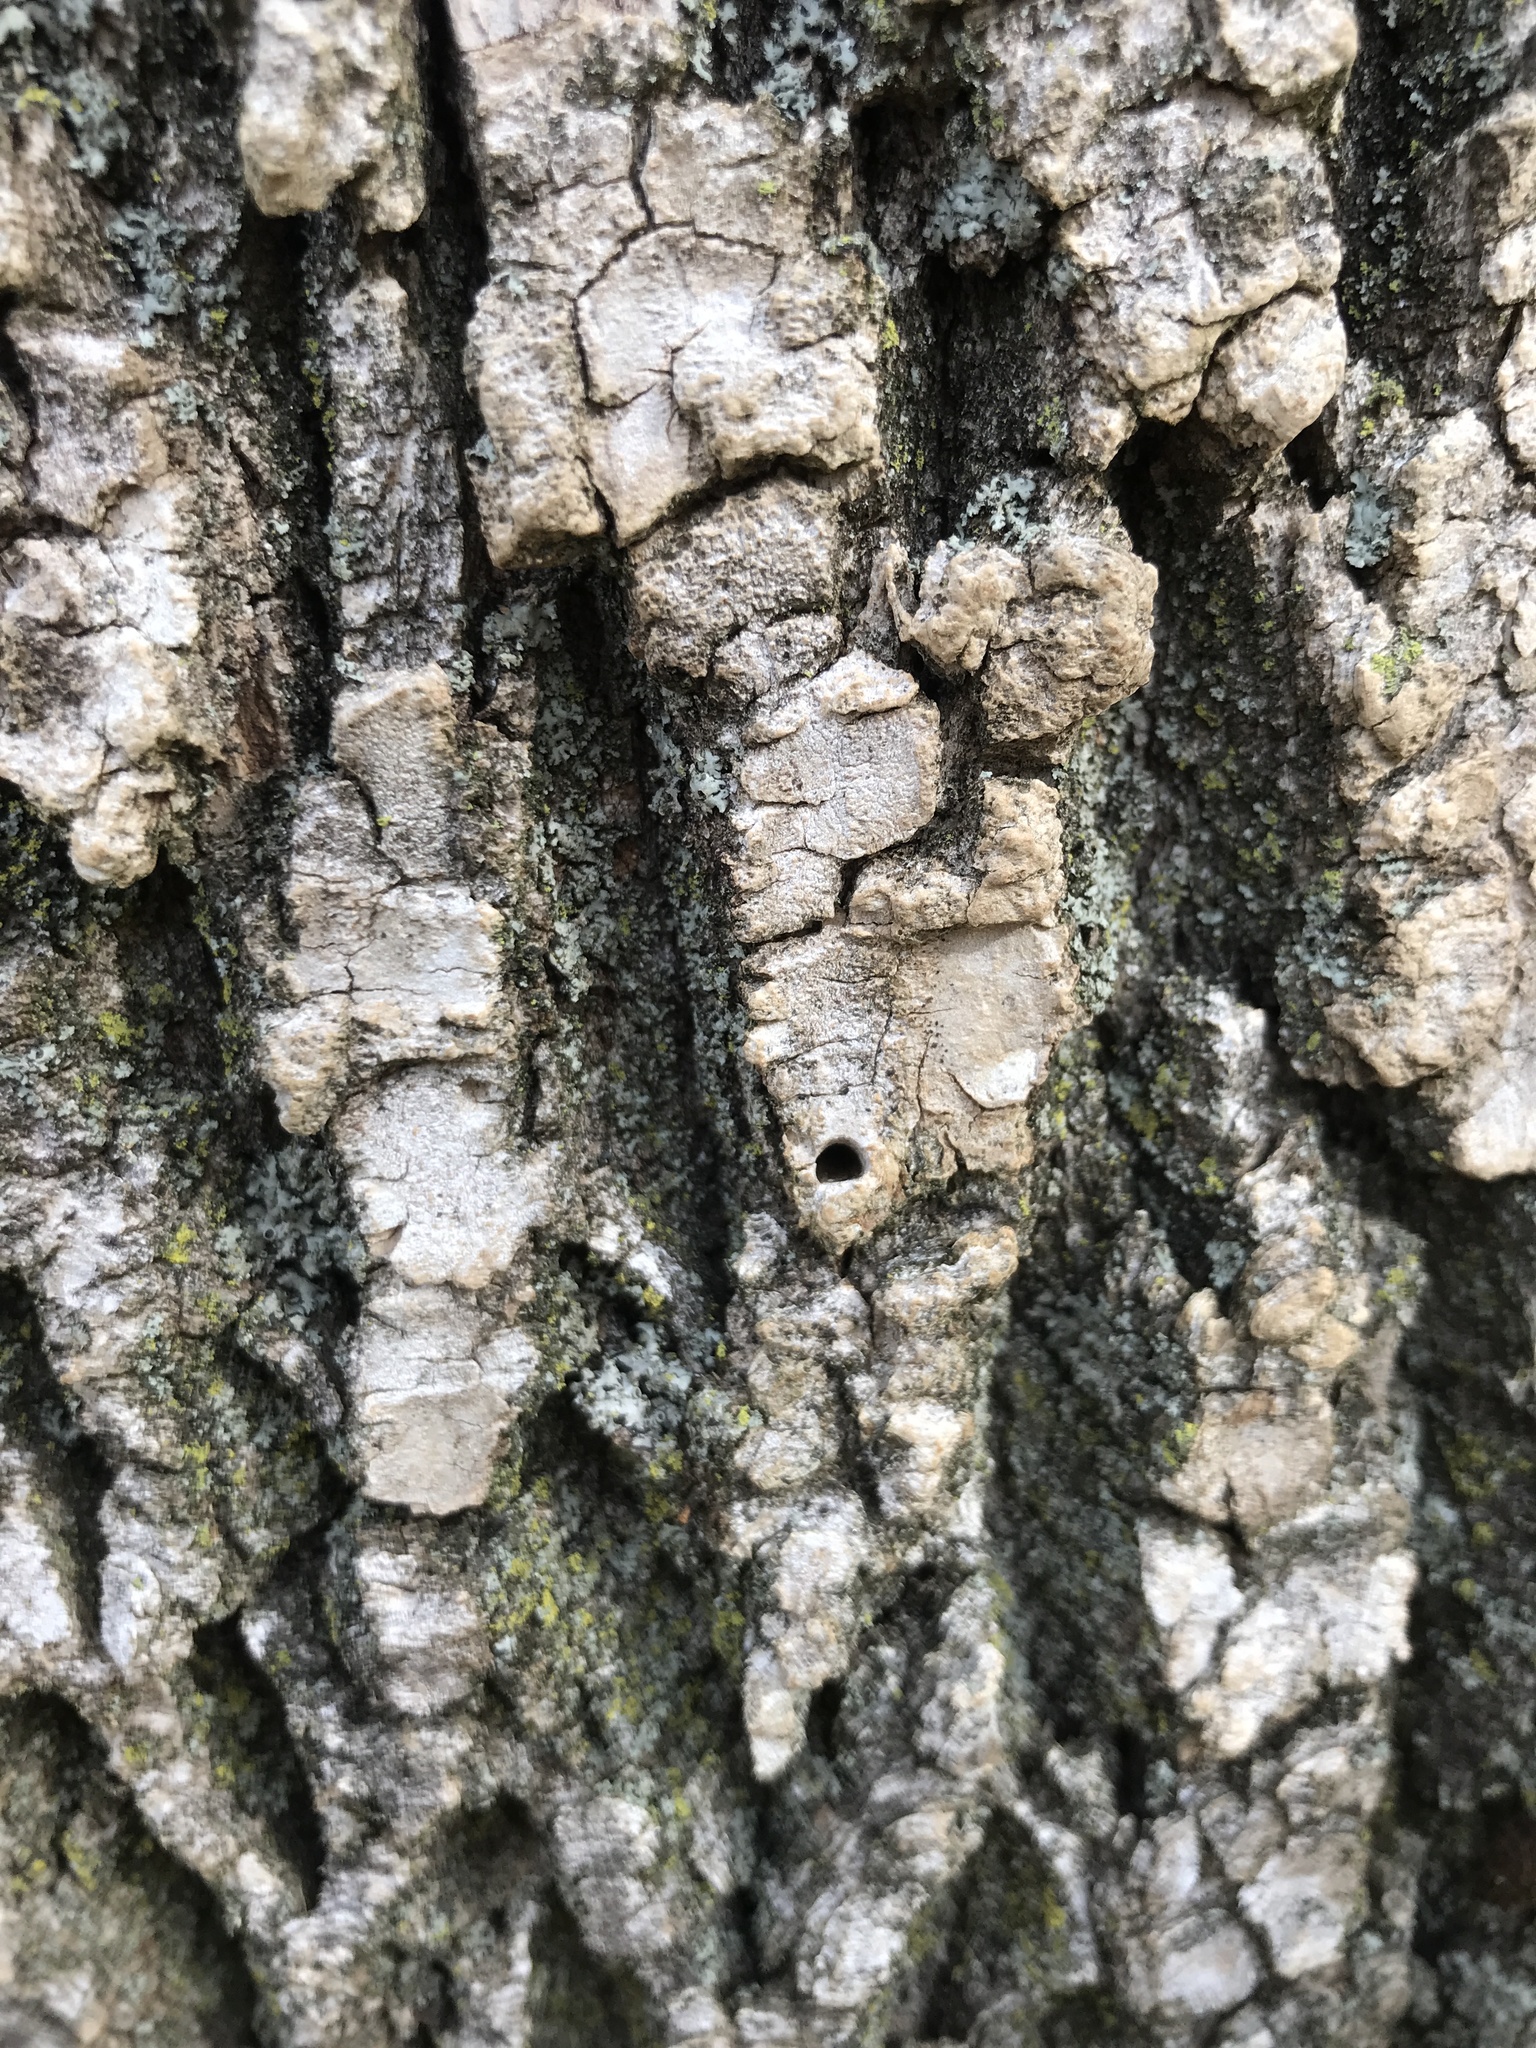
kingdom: Animalia
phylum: Arthropoda
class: Insecta
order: Coleoptera
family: Buprestidae
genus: Agrilus
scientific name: Agrilus planipennis
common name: Emerald ash borer
